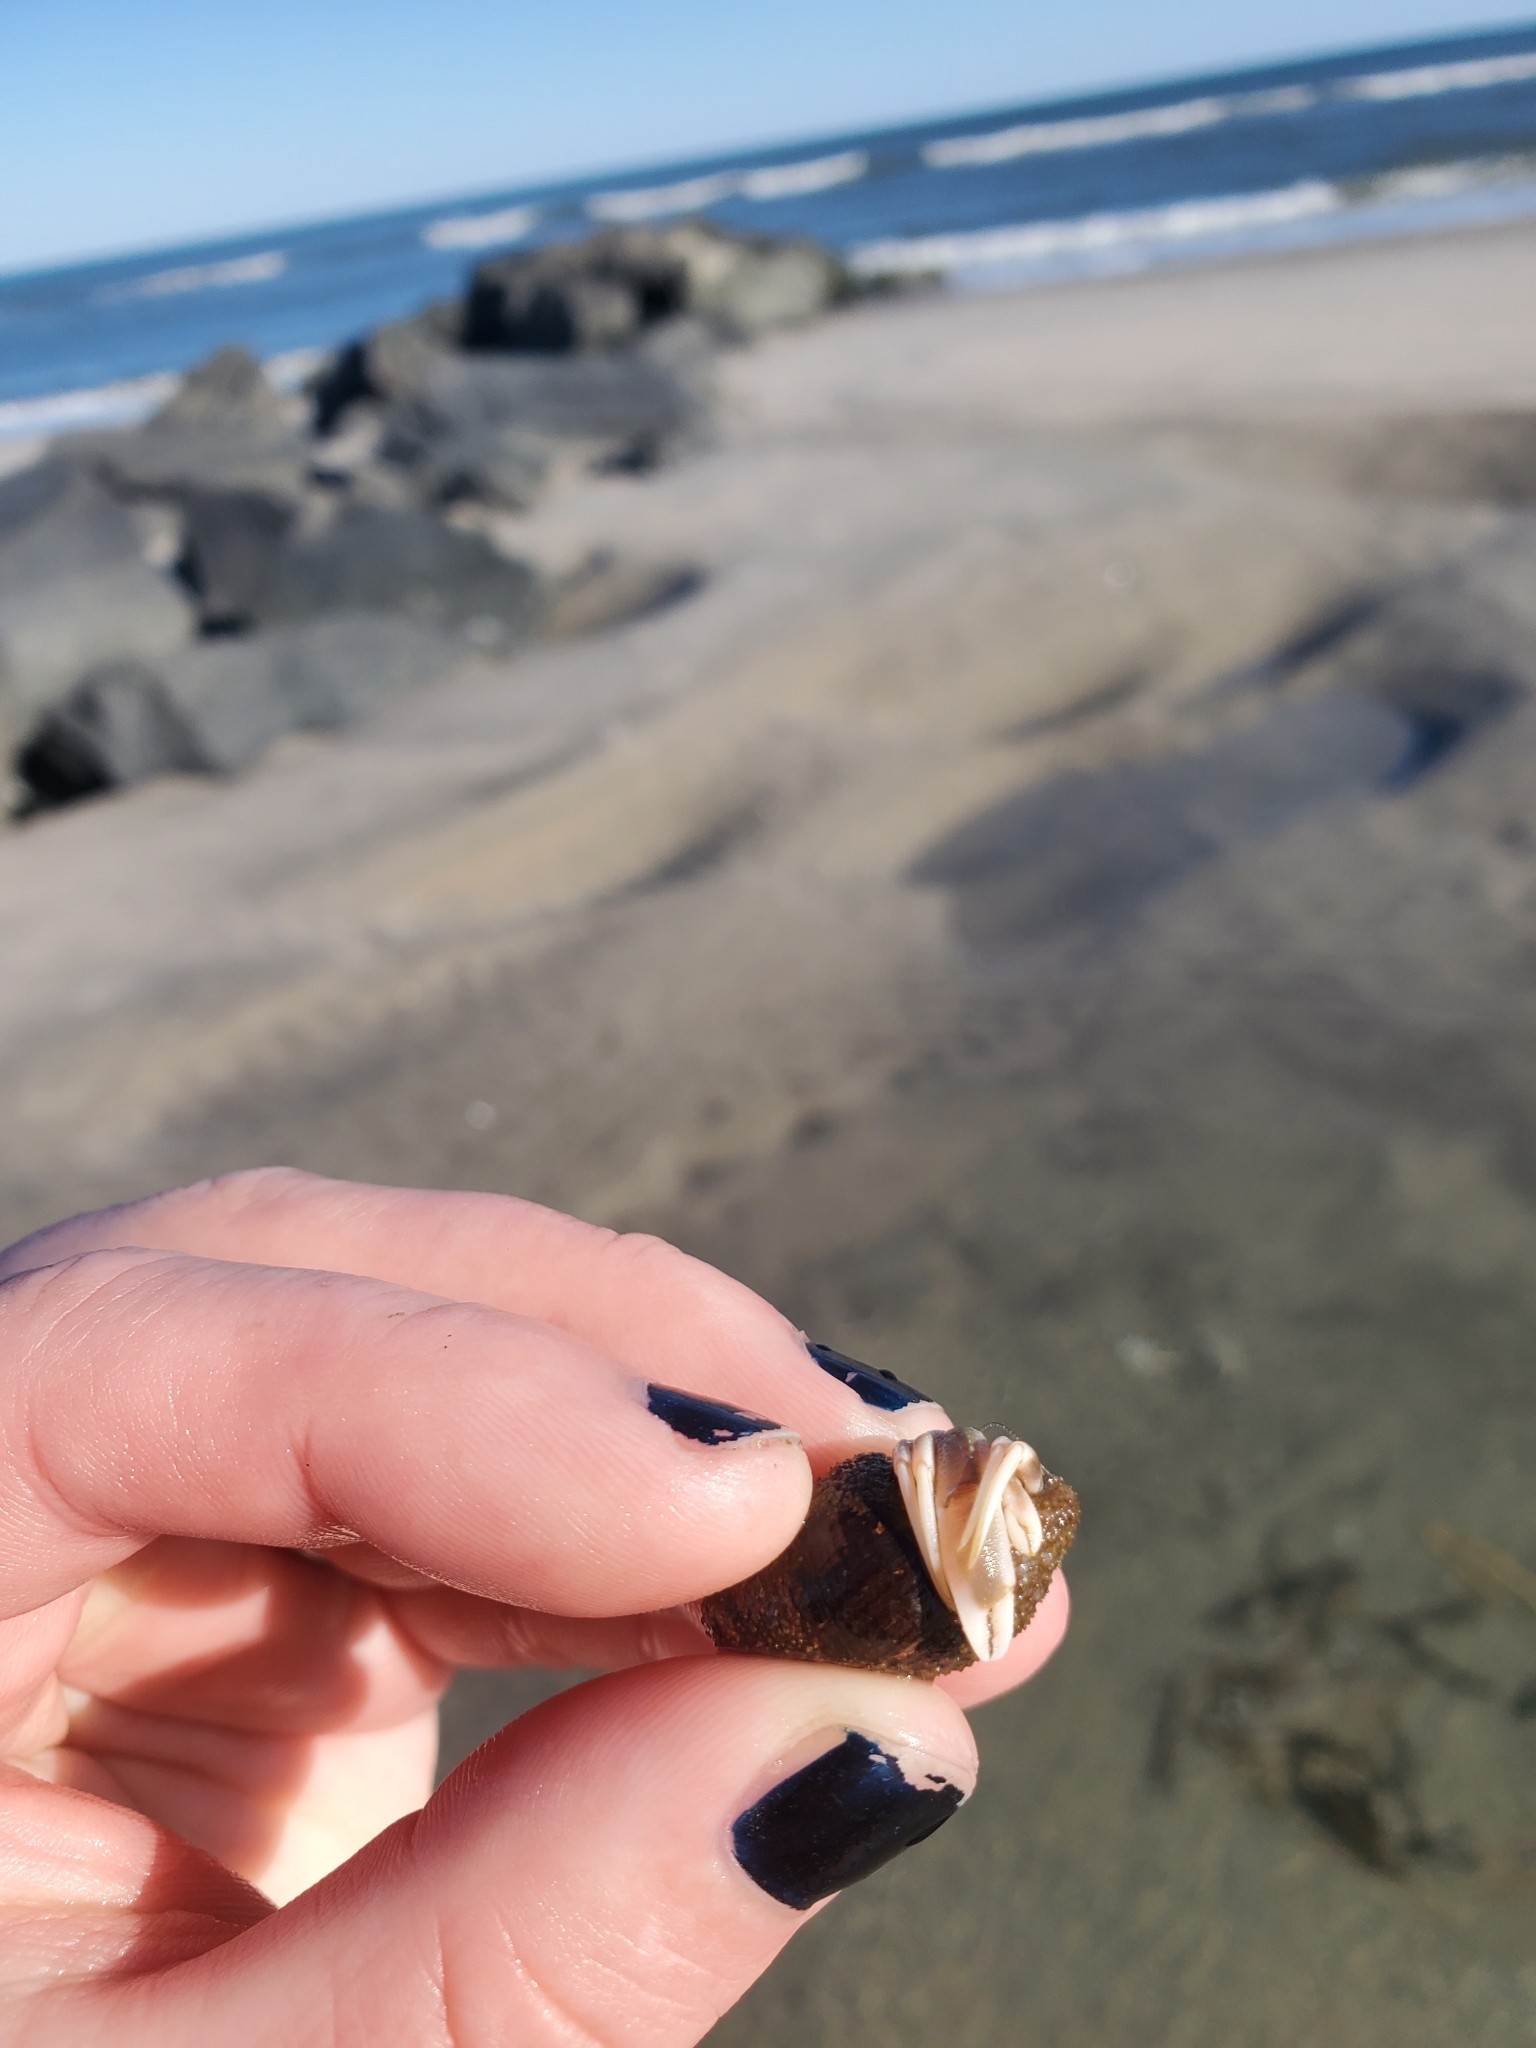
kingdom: Animalia
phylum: Arthropoda
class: Malacostraca
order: Decapoda
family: Paguridae
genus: Pagurus
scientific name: Pagurus longicarpus
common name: Long-armed hermit crab
